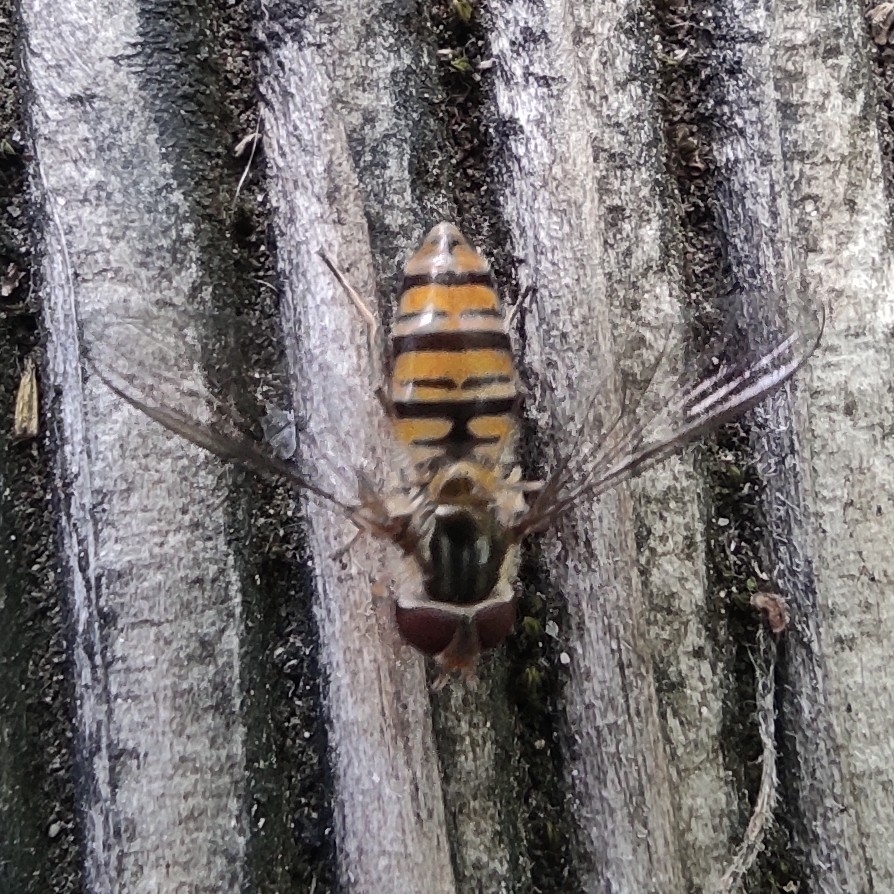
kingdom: Animalia
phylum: Arthropoda
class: Insecta
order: Diptera
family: Syrphidae
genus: Episyrphus
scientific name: Episyrphus balteatus
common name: Marmalade hoverfly
